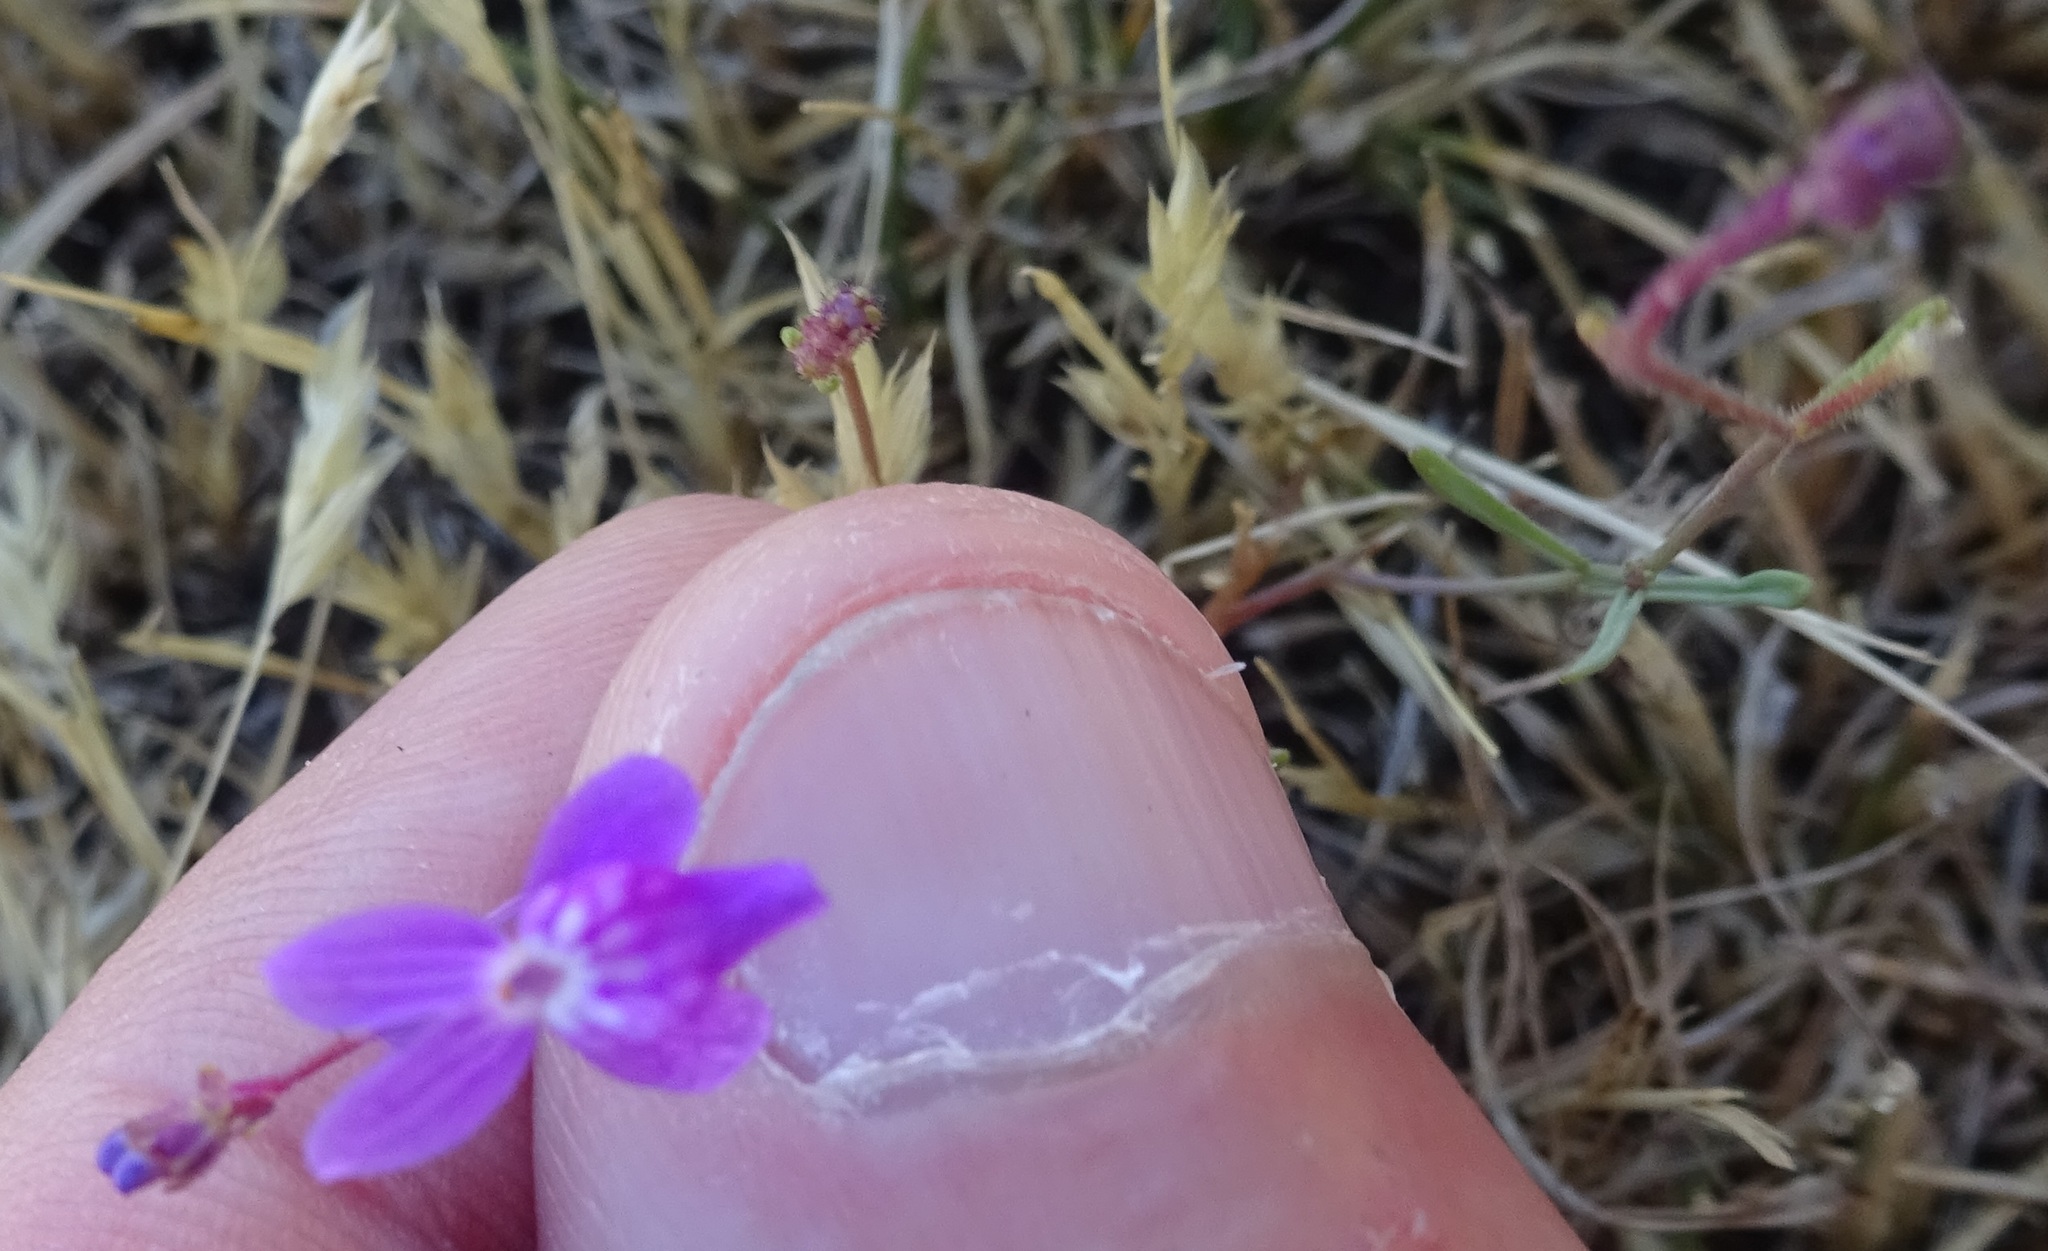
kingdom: Plantae
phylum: Tracheophyta
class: Magnoliopsida
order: Lamiales
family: Plantaginaceae
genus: Linaria
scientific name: Linaria elegans
